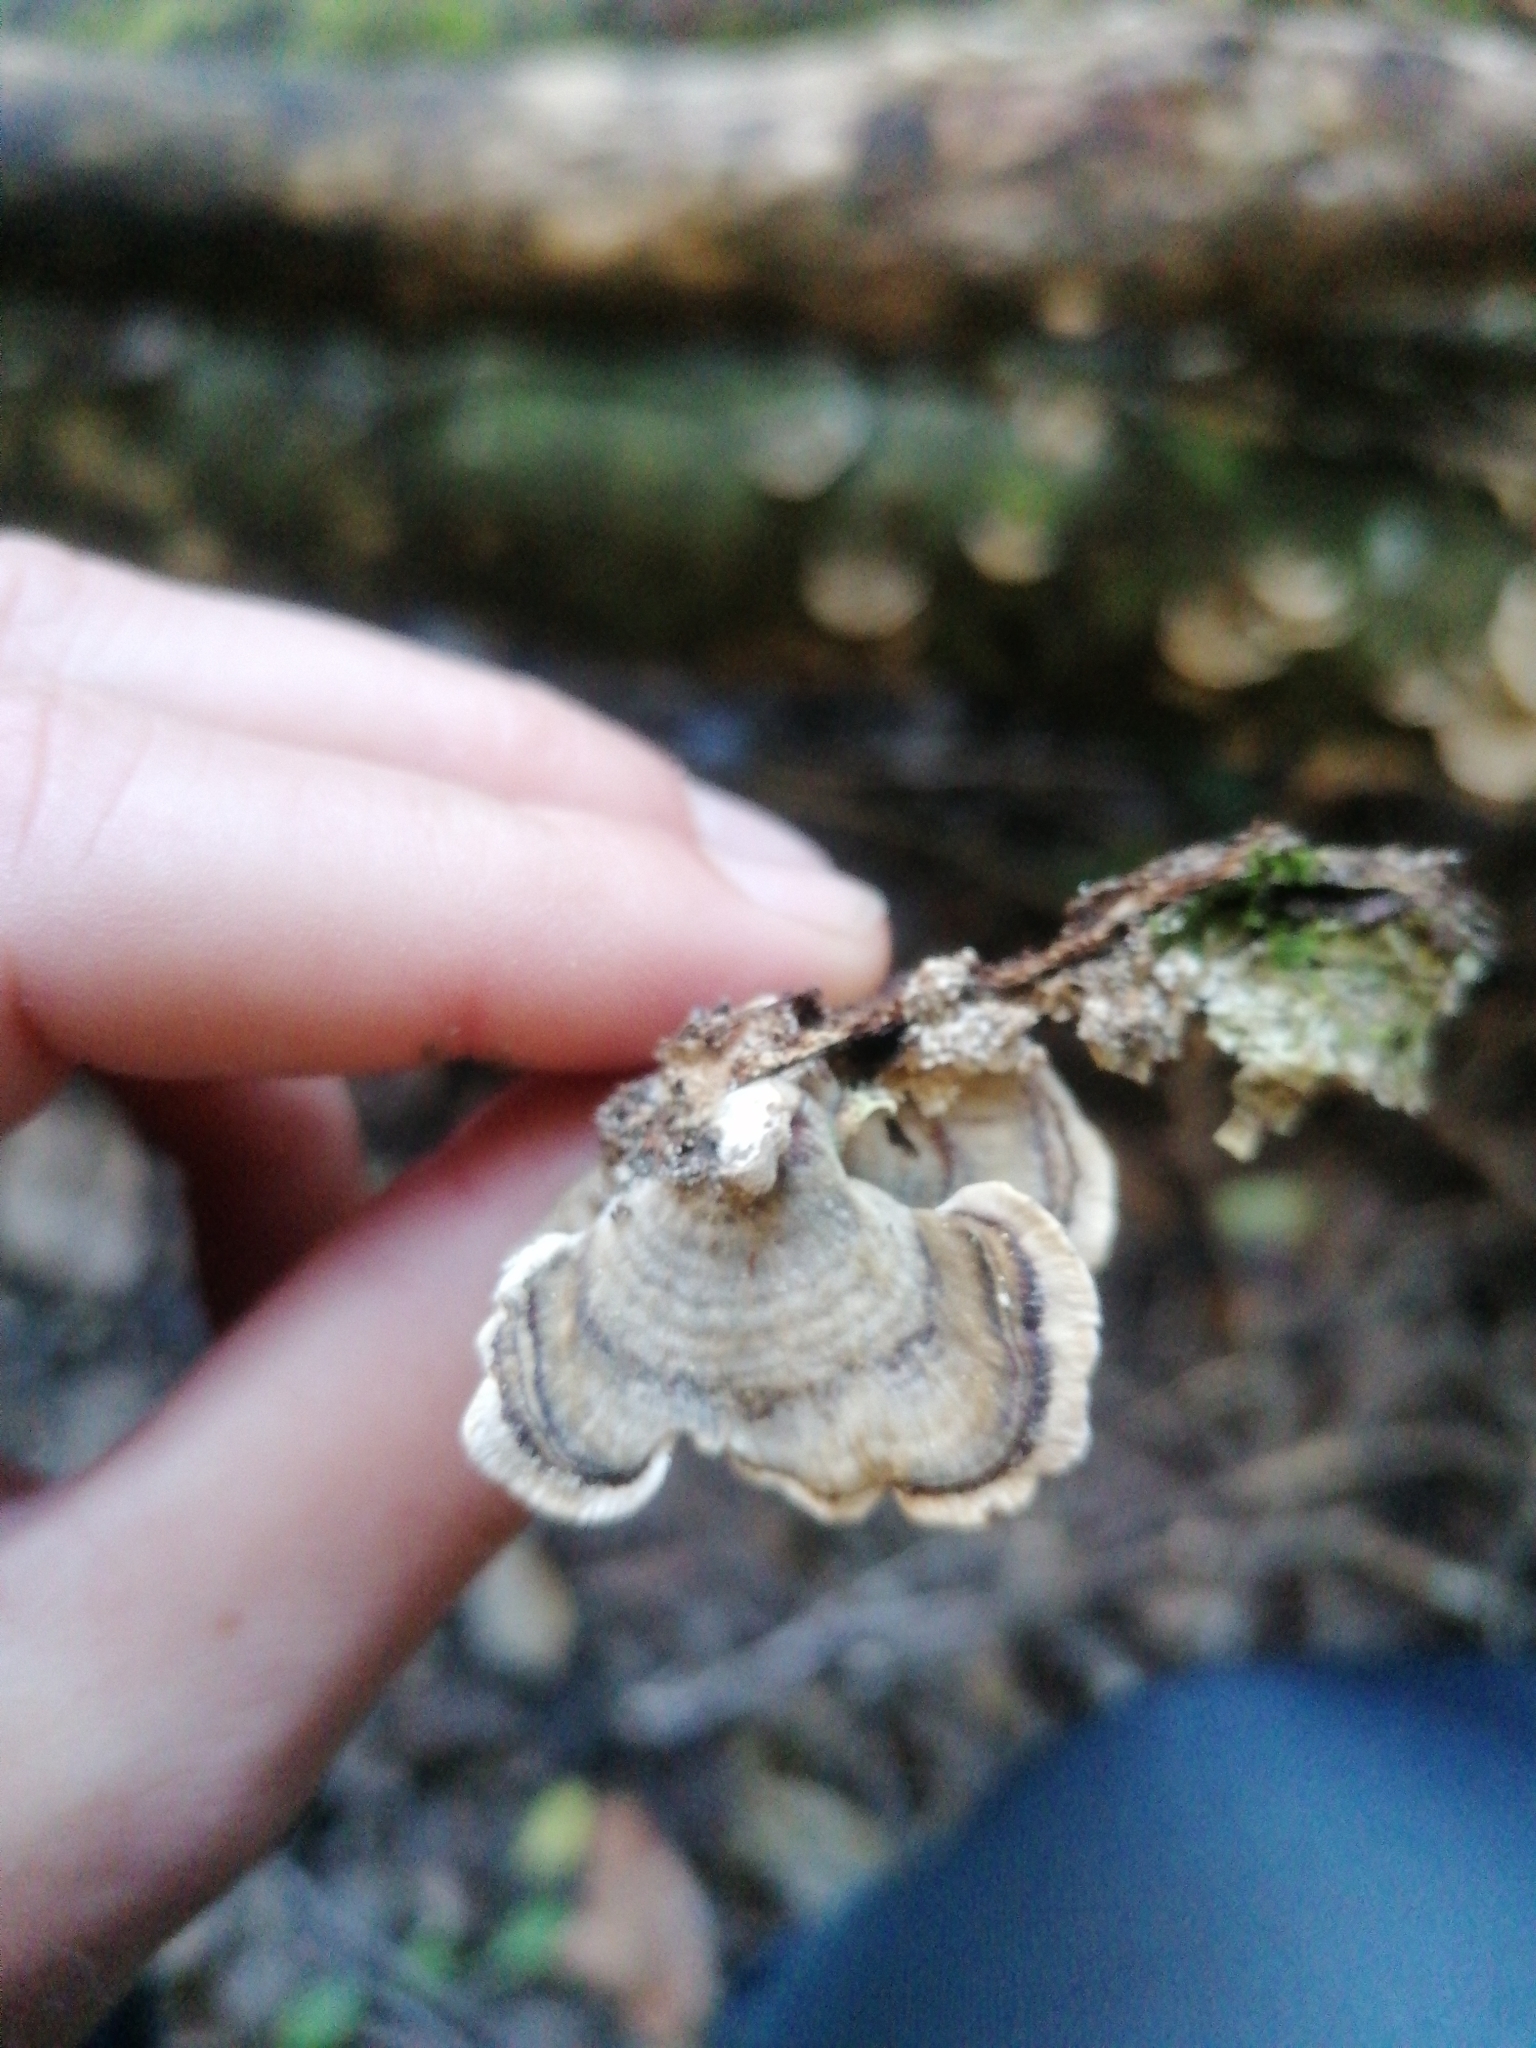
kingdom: Fungi
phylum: Basidiomycota
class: Agaricomycetes
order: Polyporales
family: Polyporaceae
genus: Trametes
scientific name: Trametes versicolor
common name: Turkeytail
